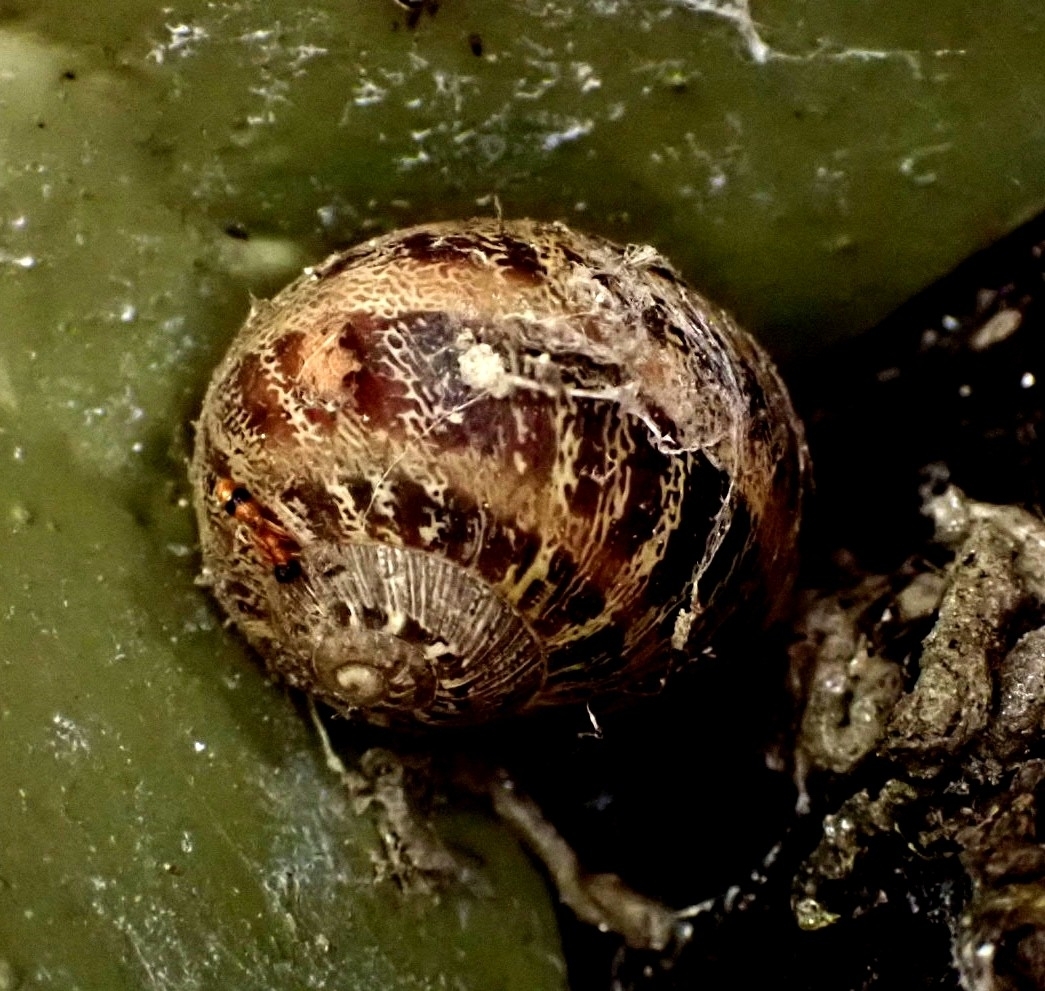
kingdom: Animalia
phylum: Mollusca
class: Gastropoda
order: Stylommatophora
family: Helicidae
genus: Cornu
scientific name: Cornu aspersum
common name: Brown garden snail
